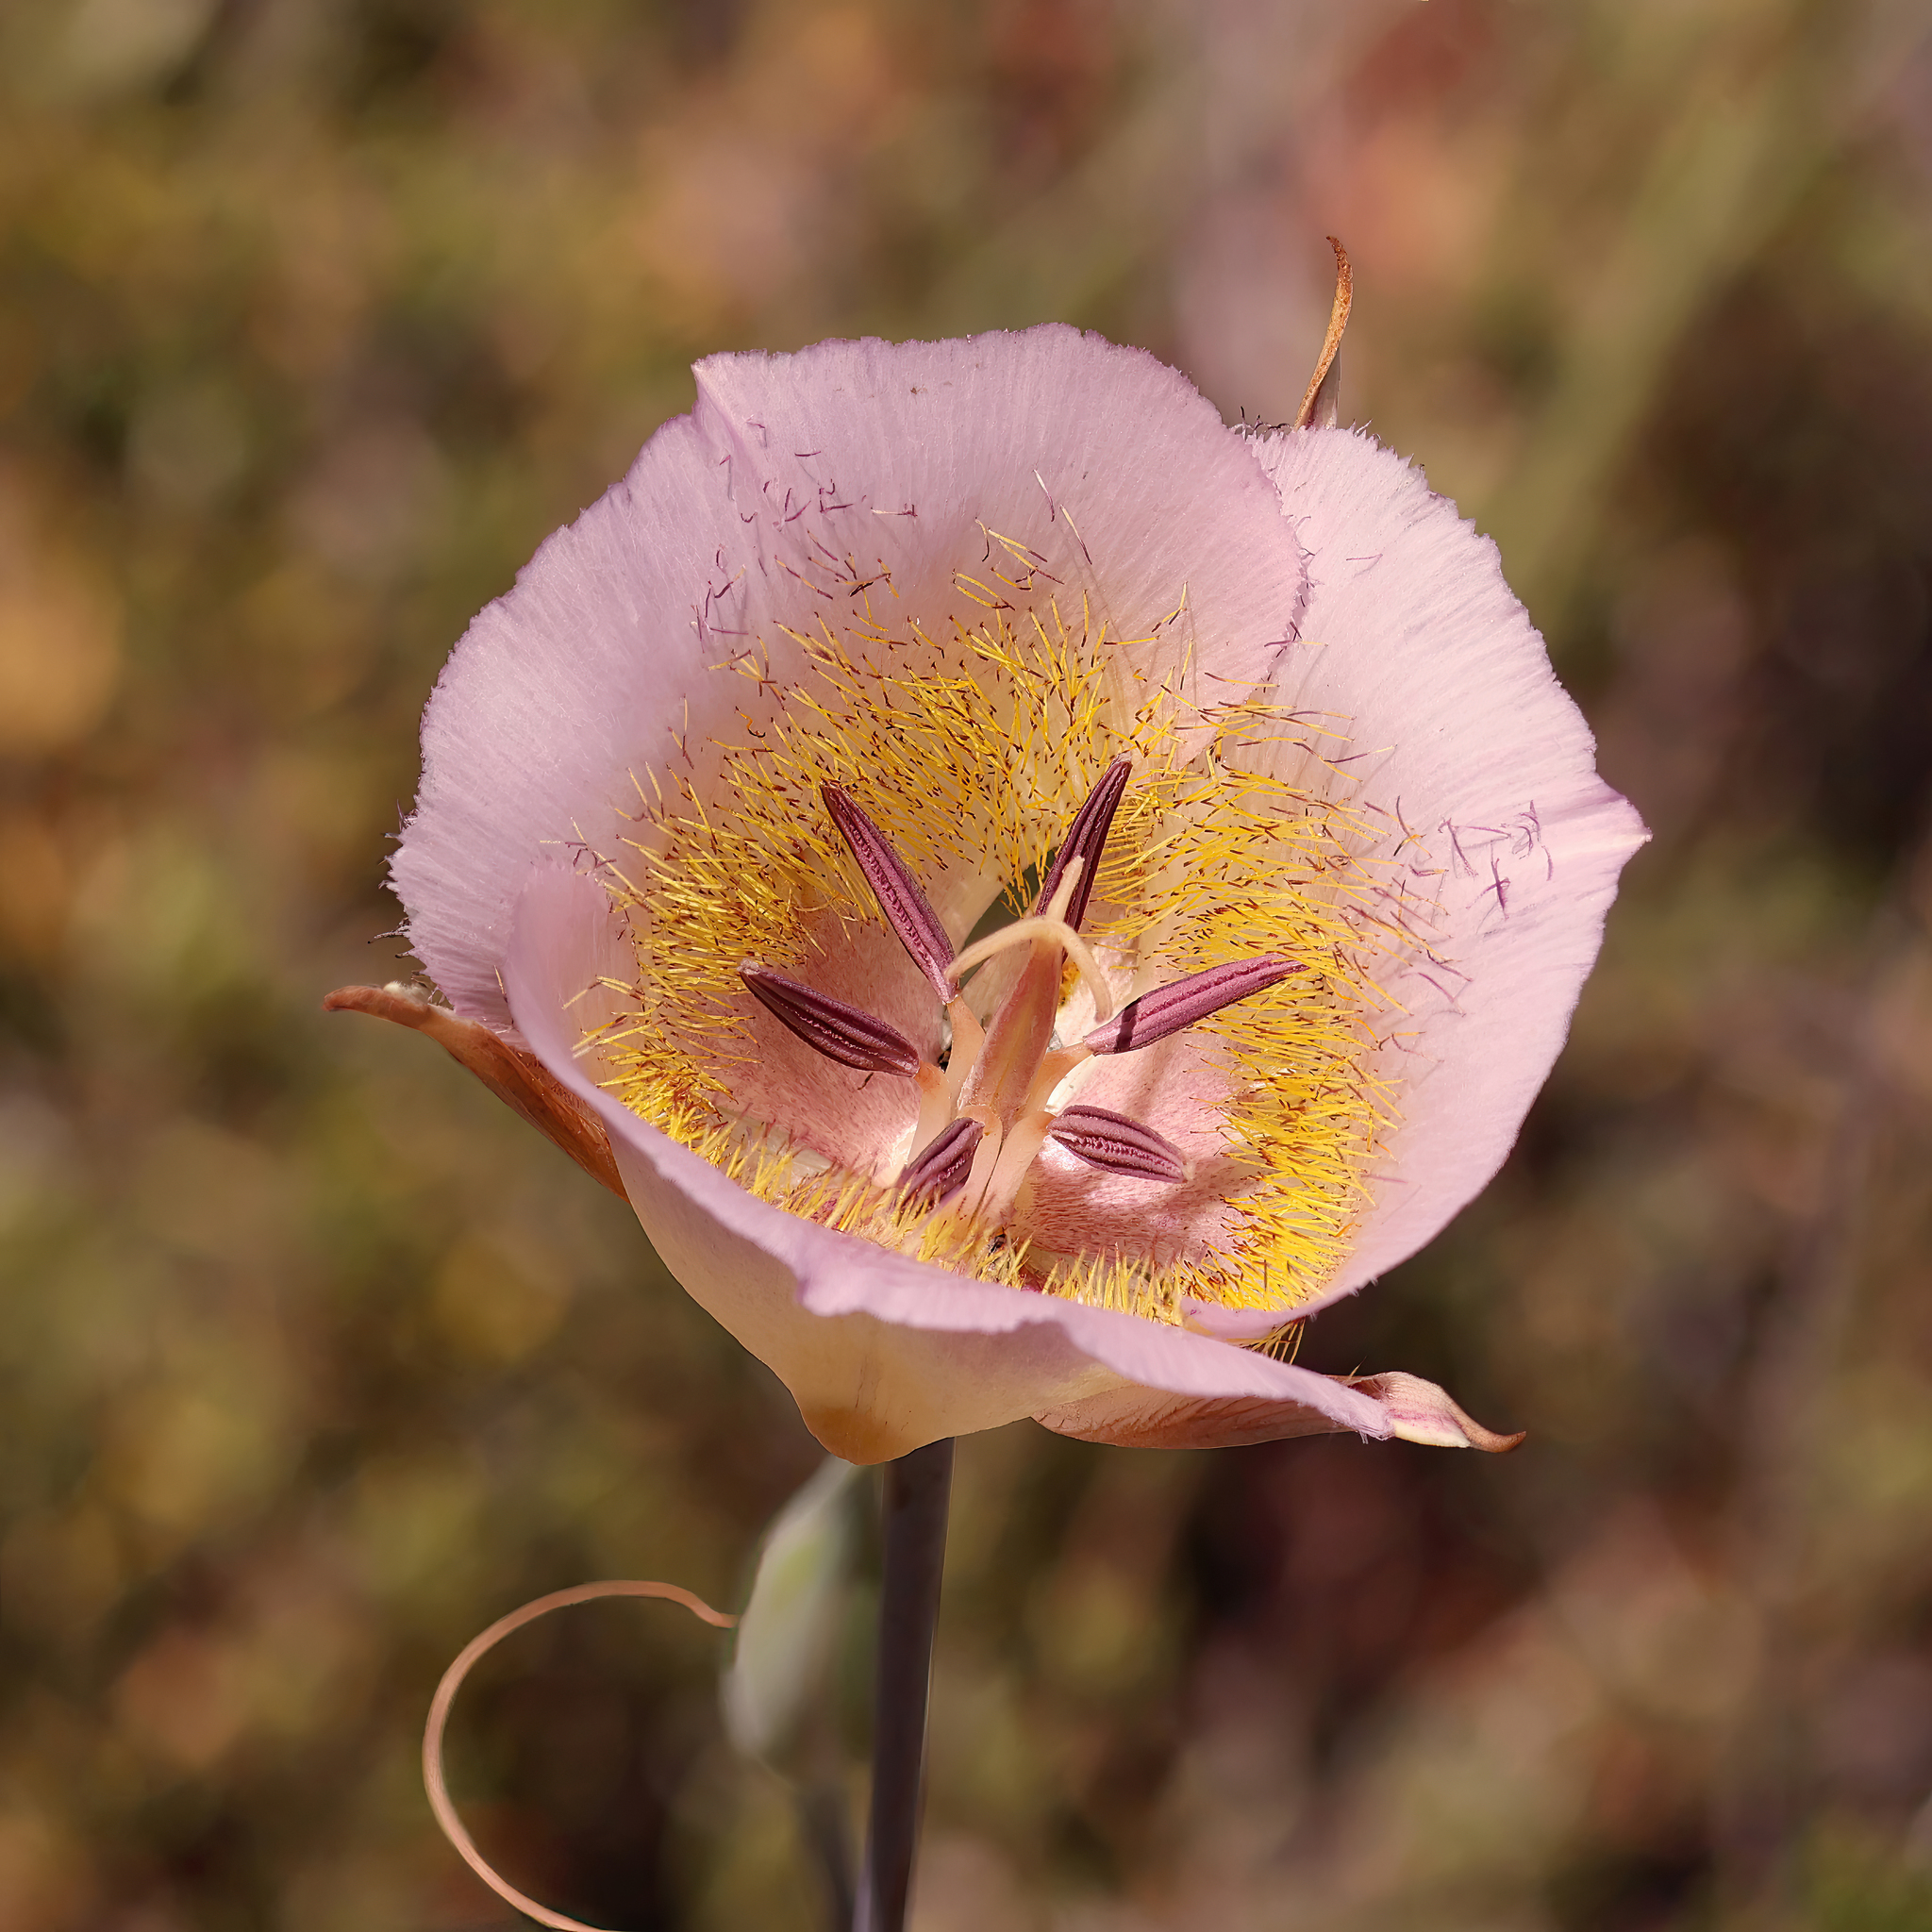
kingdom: Plantae
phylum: Tracheophyta
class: Liliopsida
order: Liliales
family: Liliaceae
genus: Calochortus
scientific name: Calochortus plummerae
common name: Plummer's mariposa-lily
